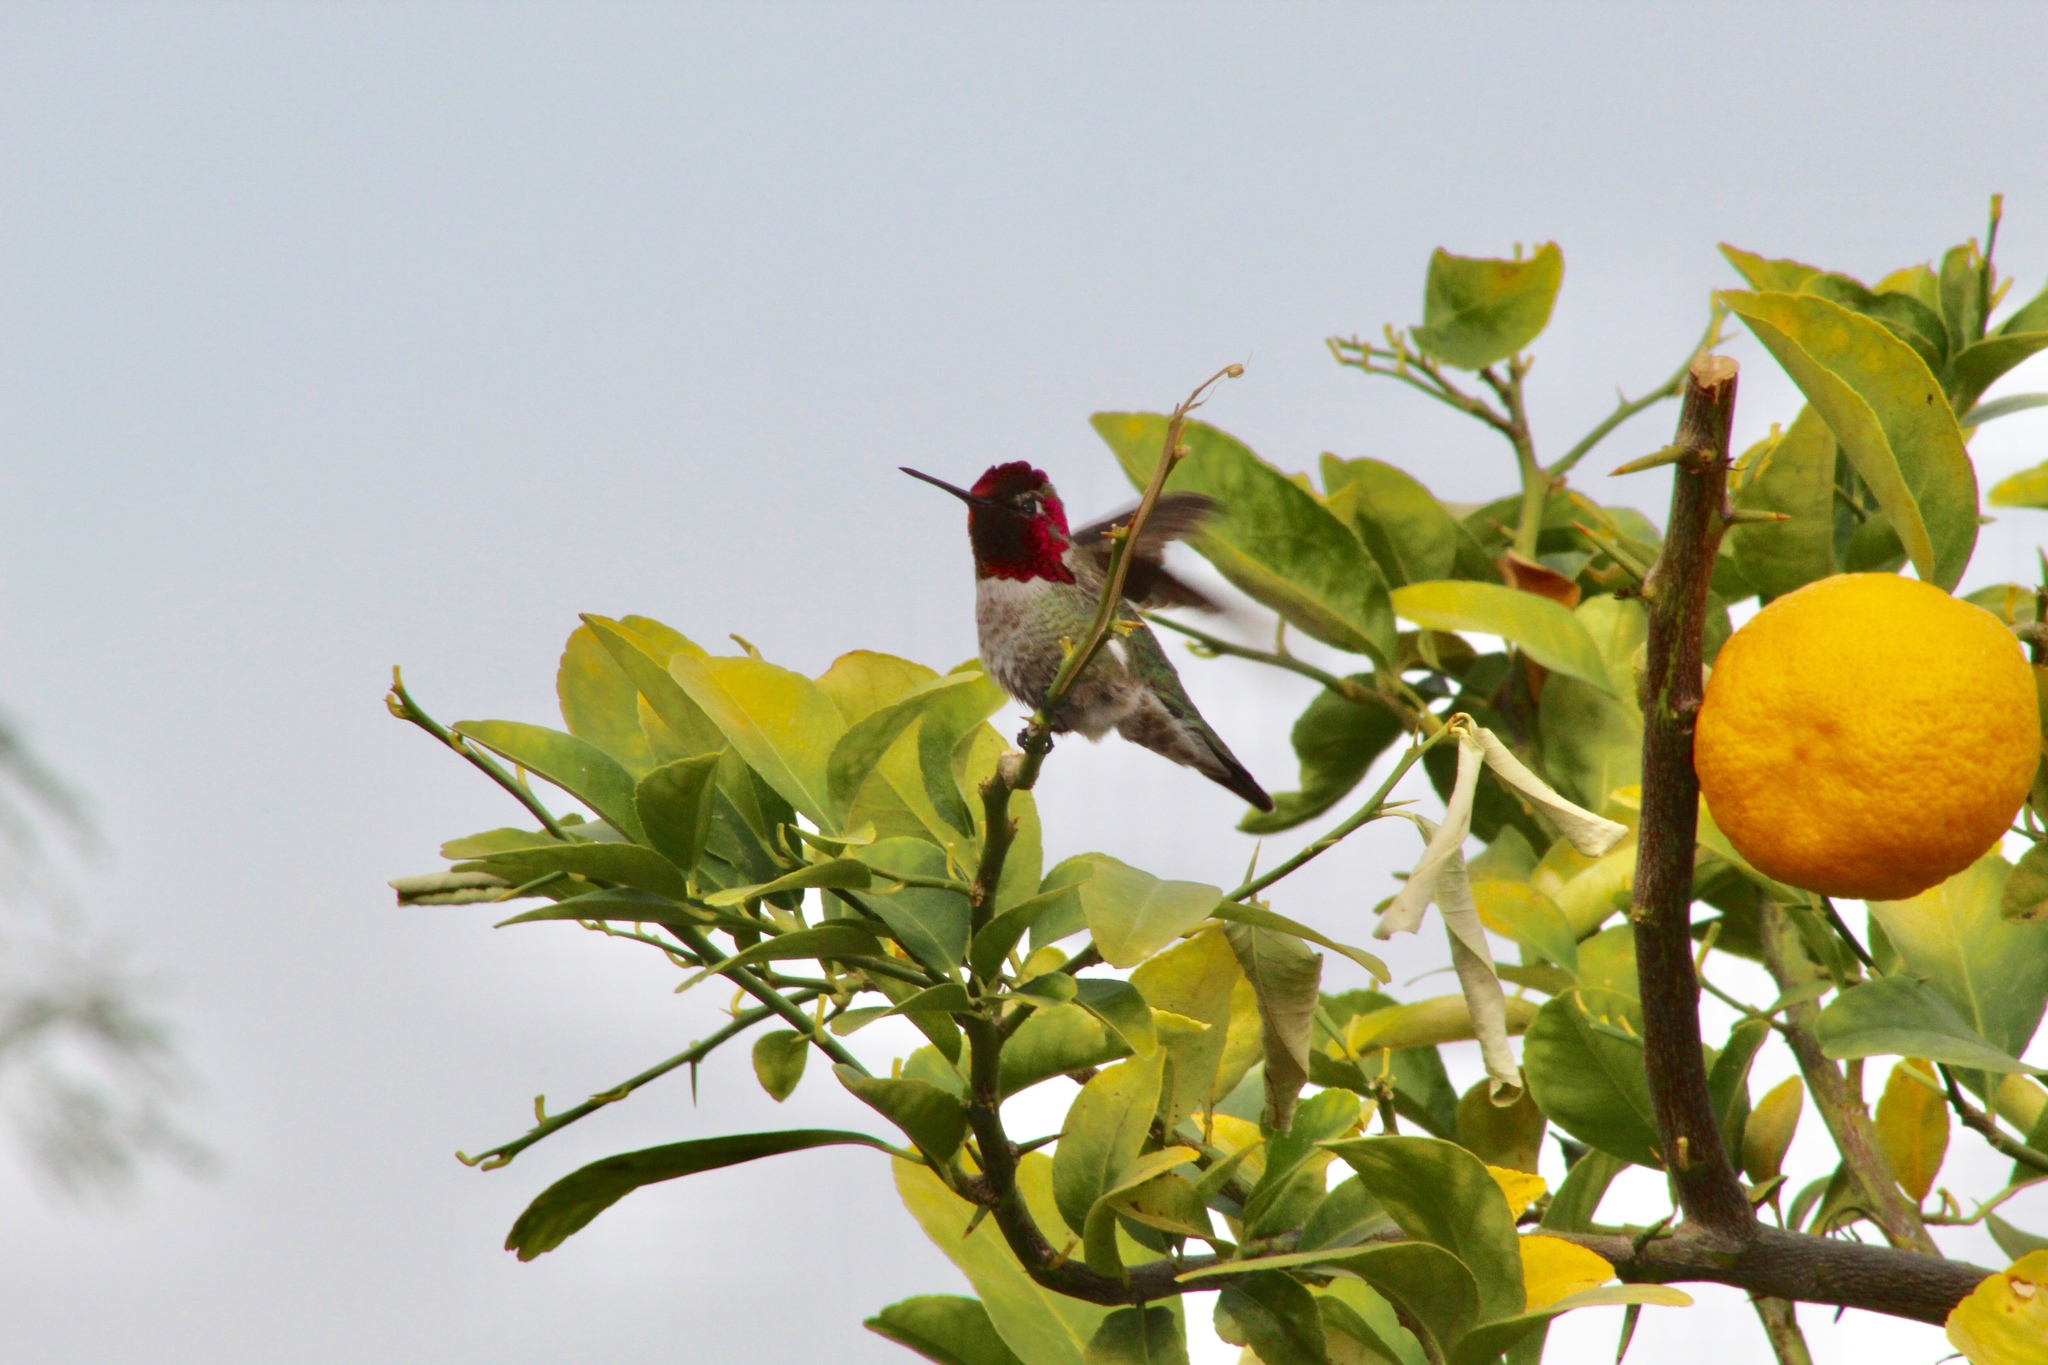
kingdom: Animalia
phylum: Chordata
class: Aves
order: Apodiformes
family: Trochilidae
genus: Calypte
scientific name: Calypte anna
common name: Anna's hummingbird
